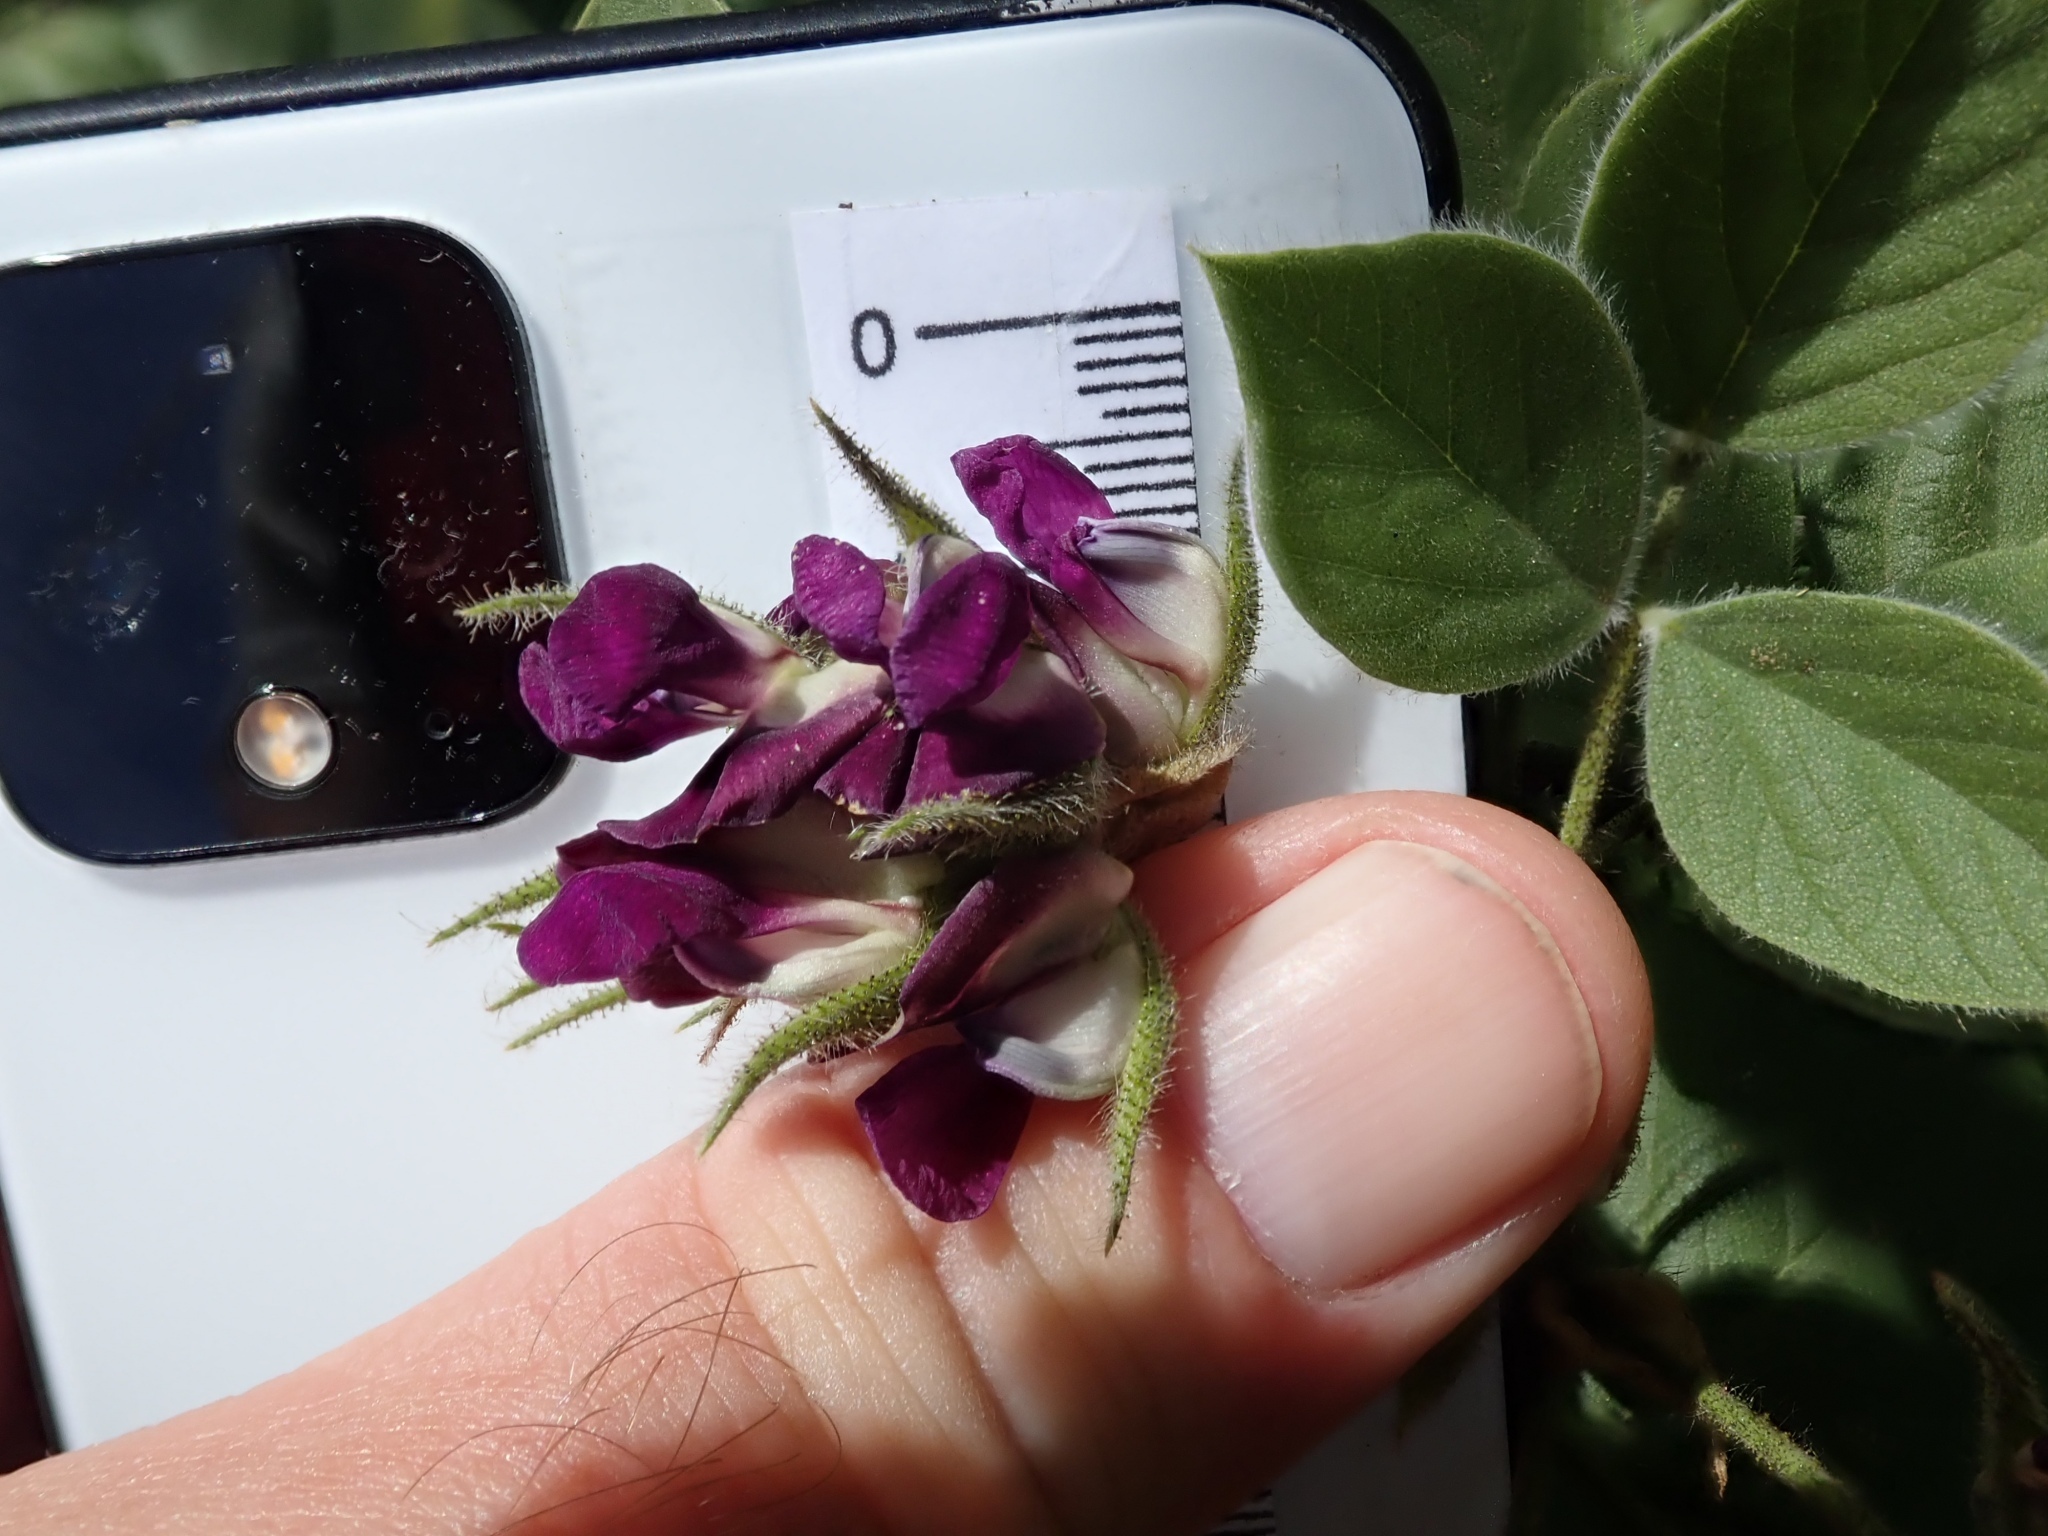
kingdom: Plantae
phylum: Tracheophyta
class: Magnoliopsida
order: Fabales
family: Fabaceae
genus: Hoita
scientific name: Hoita strobilina
